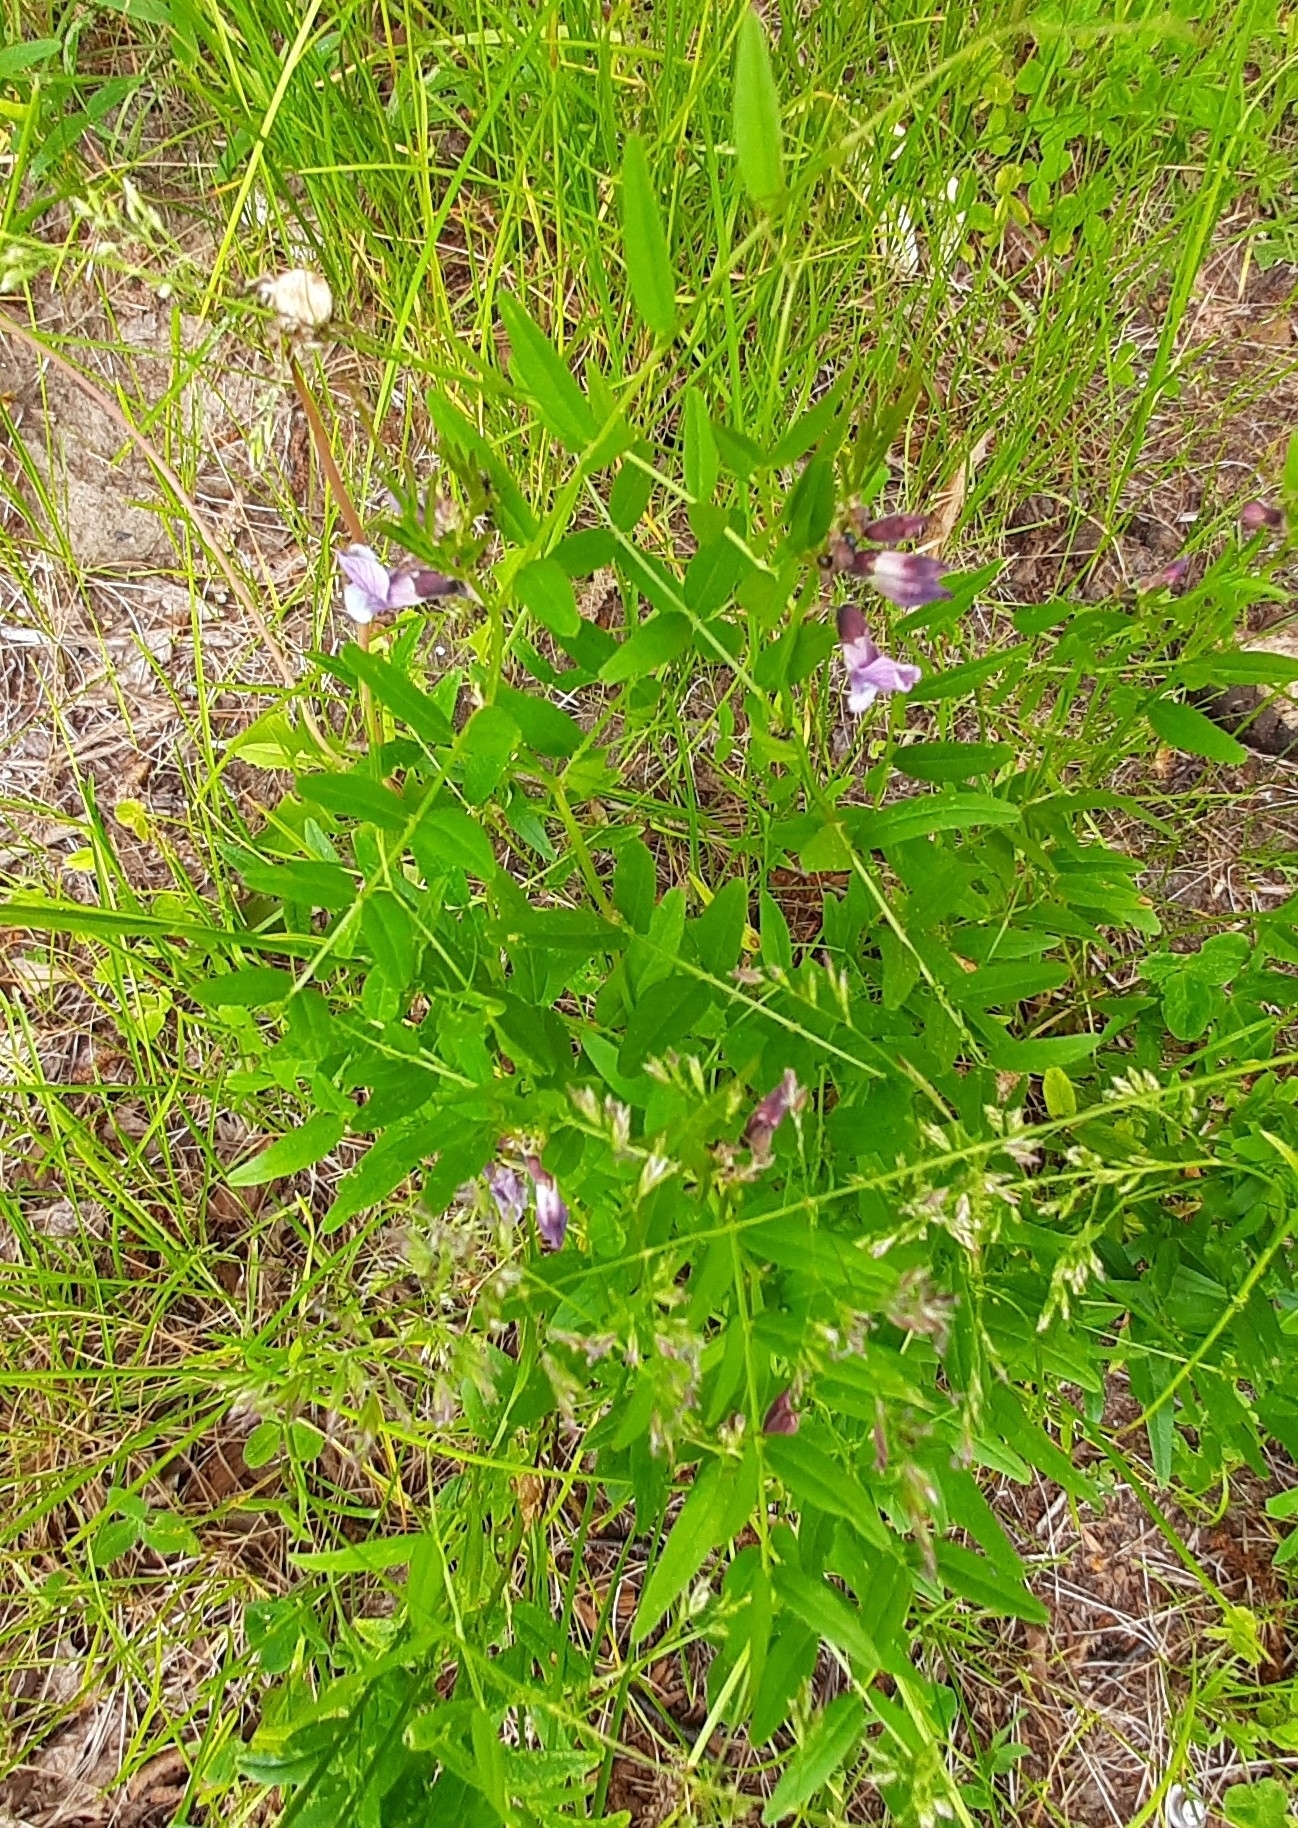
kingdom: Plantae
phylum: Tracheophyta
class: Magnoliopsida
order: Fabales
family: Fabaceae
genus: Vicia
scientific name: Vicia sepium
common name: Bush vetch
